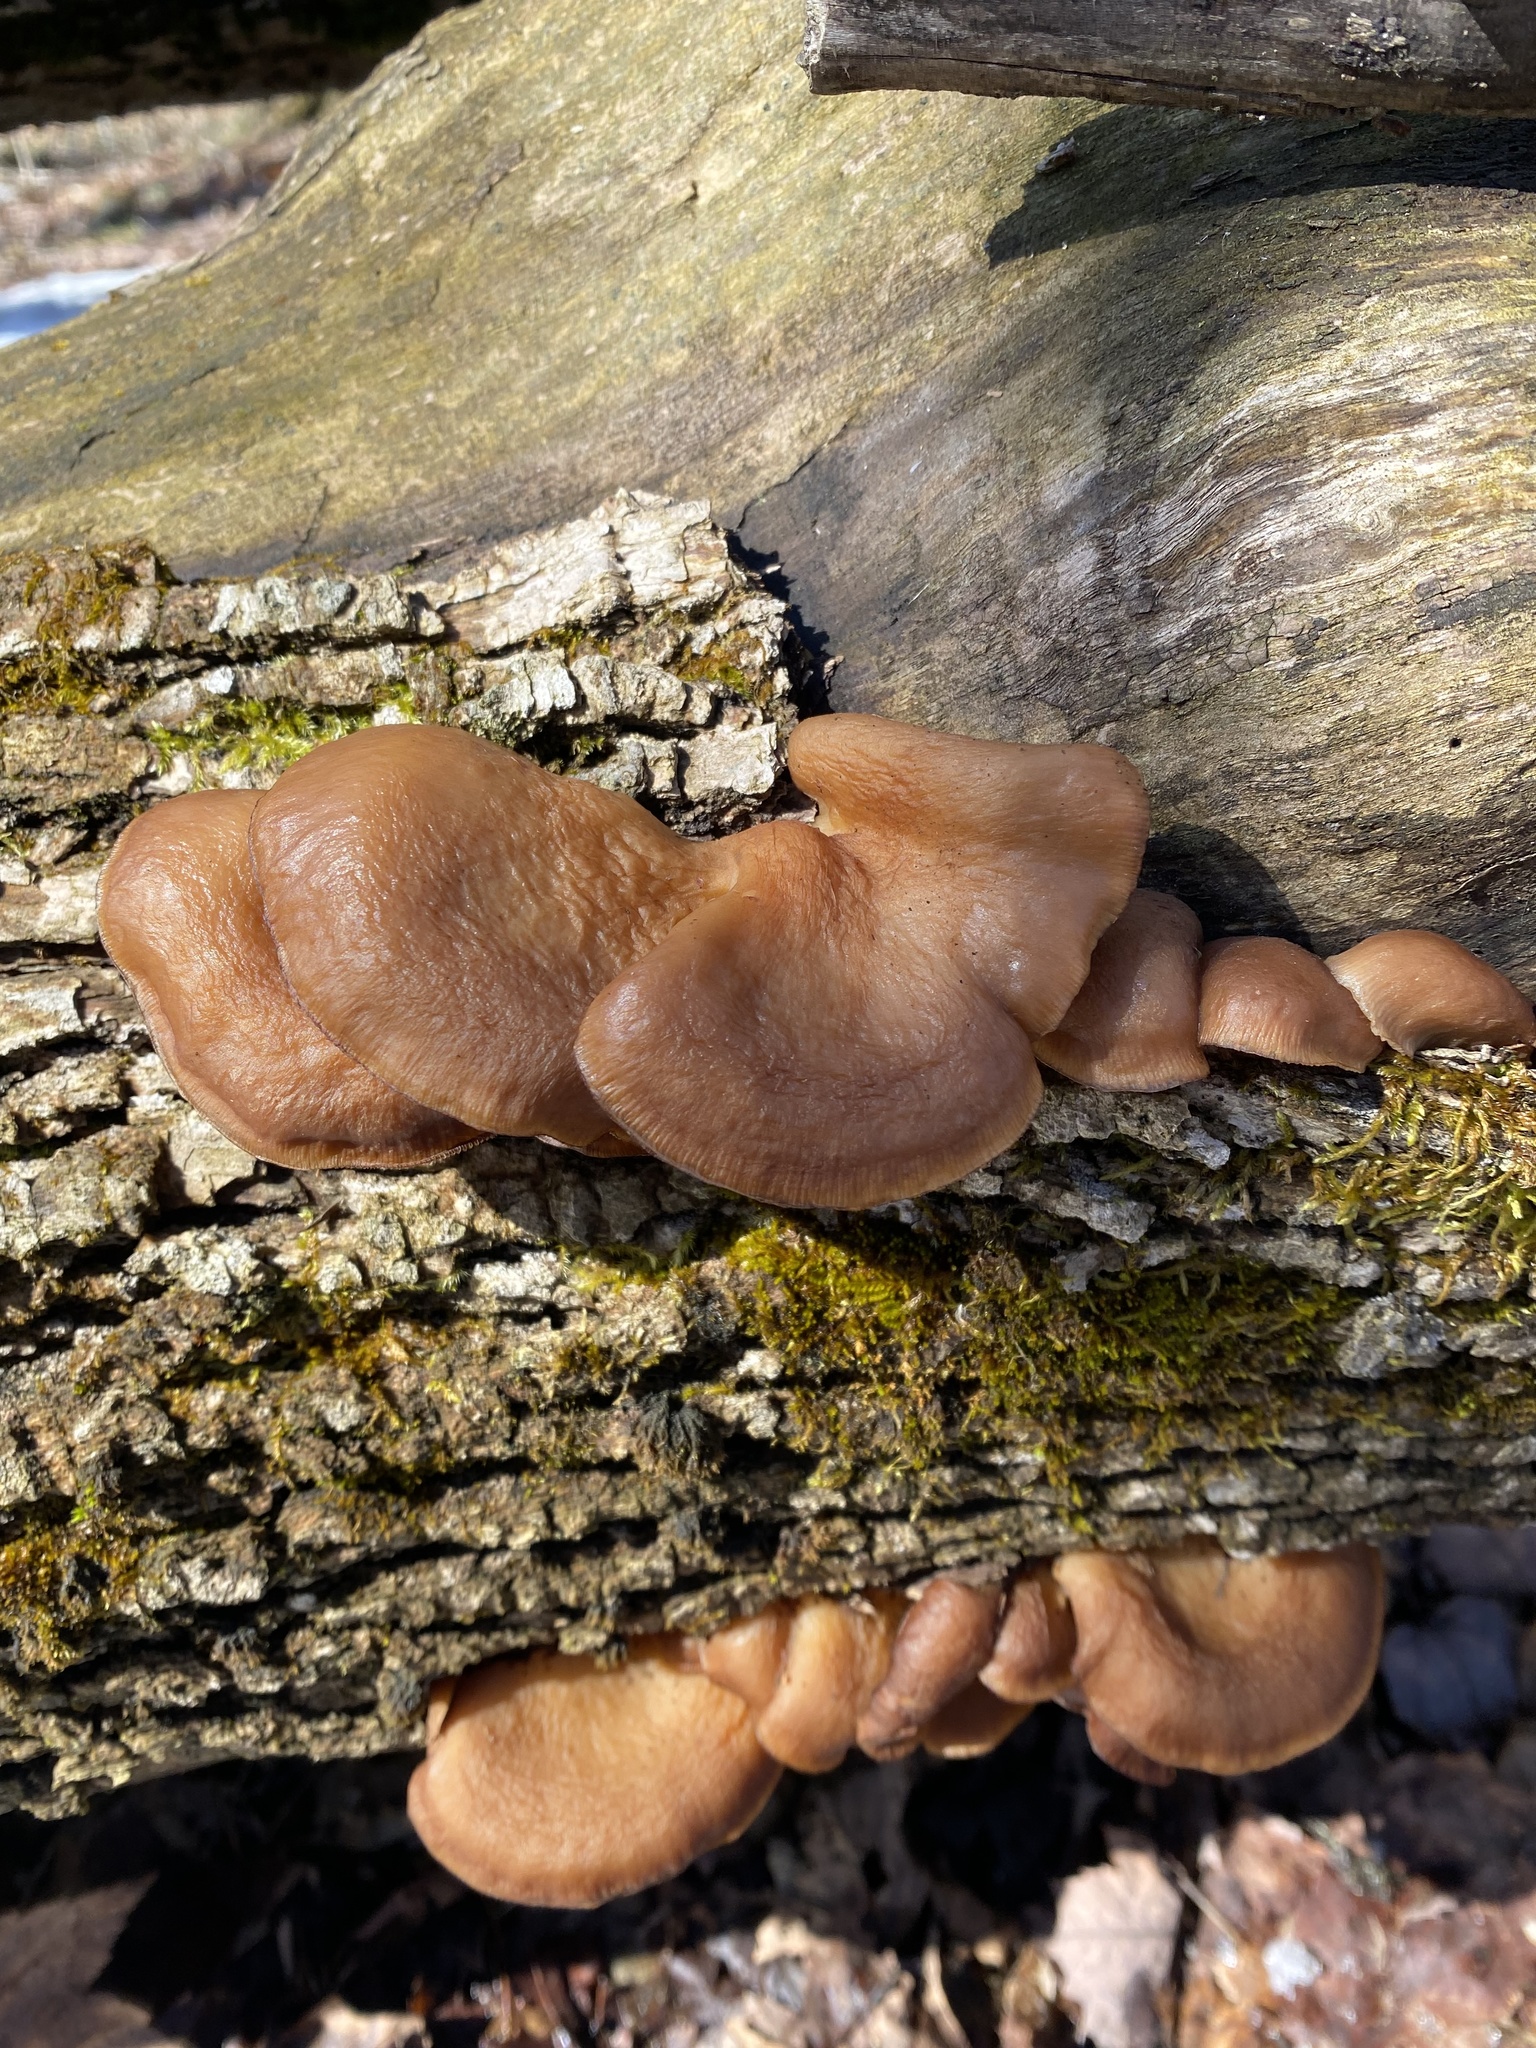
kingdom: Fungi
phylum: Basidiomycota
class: Agaricomycetes
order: Agaricales
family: Sarcomyxaceae
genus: Sarcomyxa
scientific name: Sarcomyxa serotina
